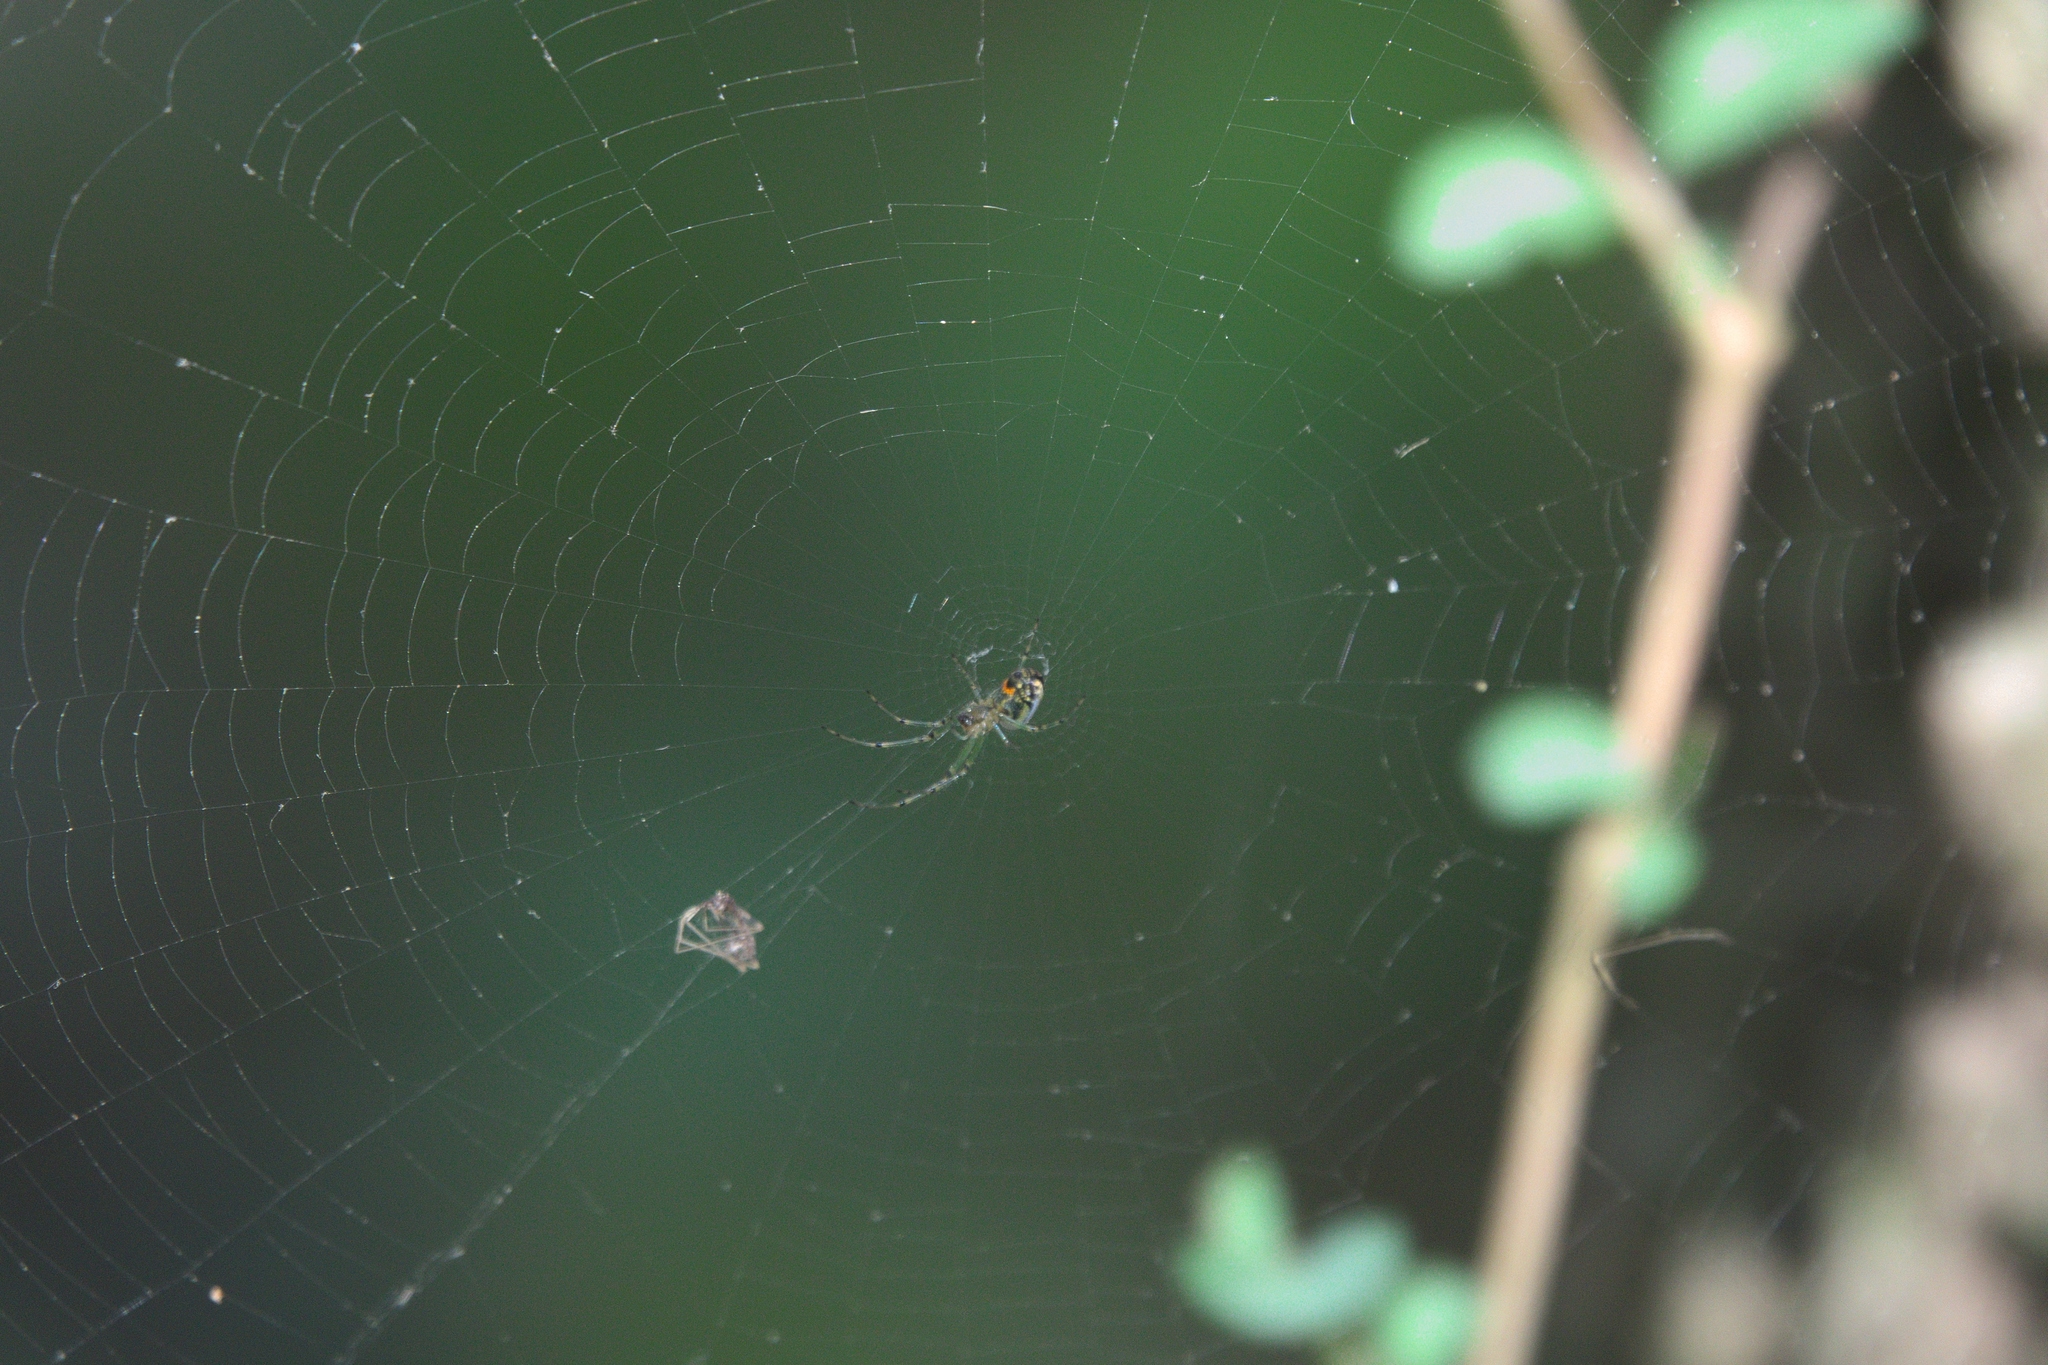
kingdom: Animalia
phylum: Arthropoda
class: Arachnida
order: Araneae
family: Tetragnathidae
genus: Leucauge
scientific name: Leucauge venusta
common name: Longjawed orb weavers
